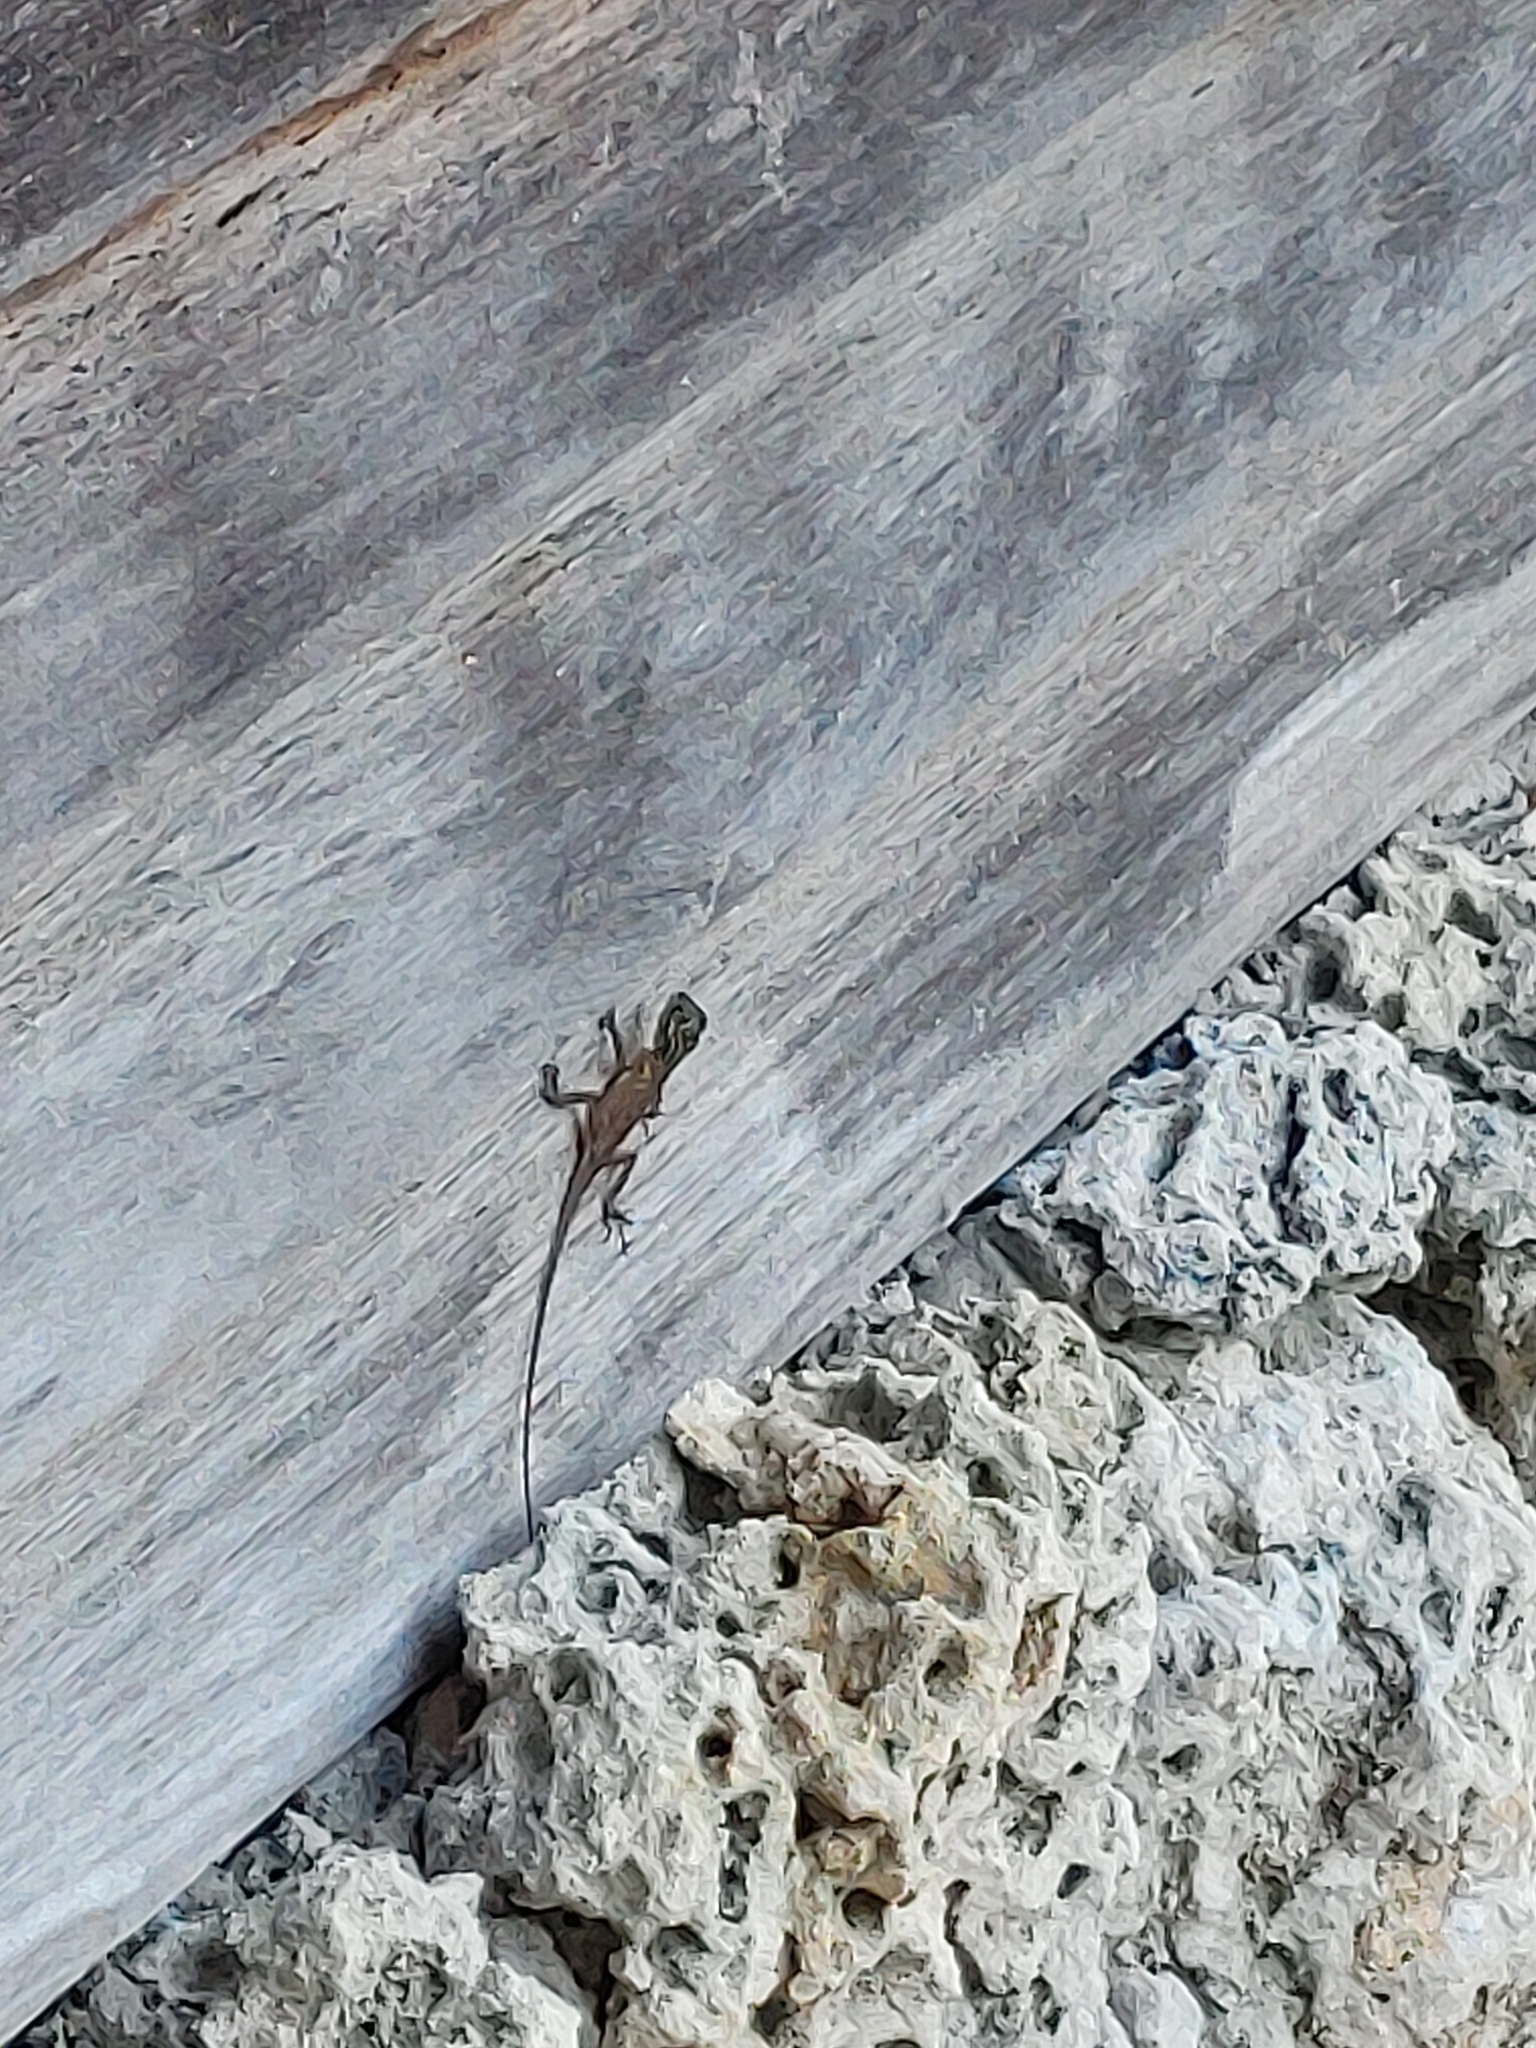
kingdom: Animalia
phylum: Chordata
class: Squamata
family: Agamidae
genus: Agama
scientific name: Agama picticauda
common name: Red-headed agama
